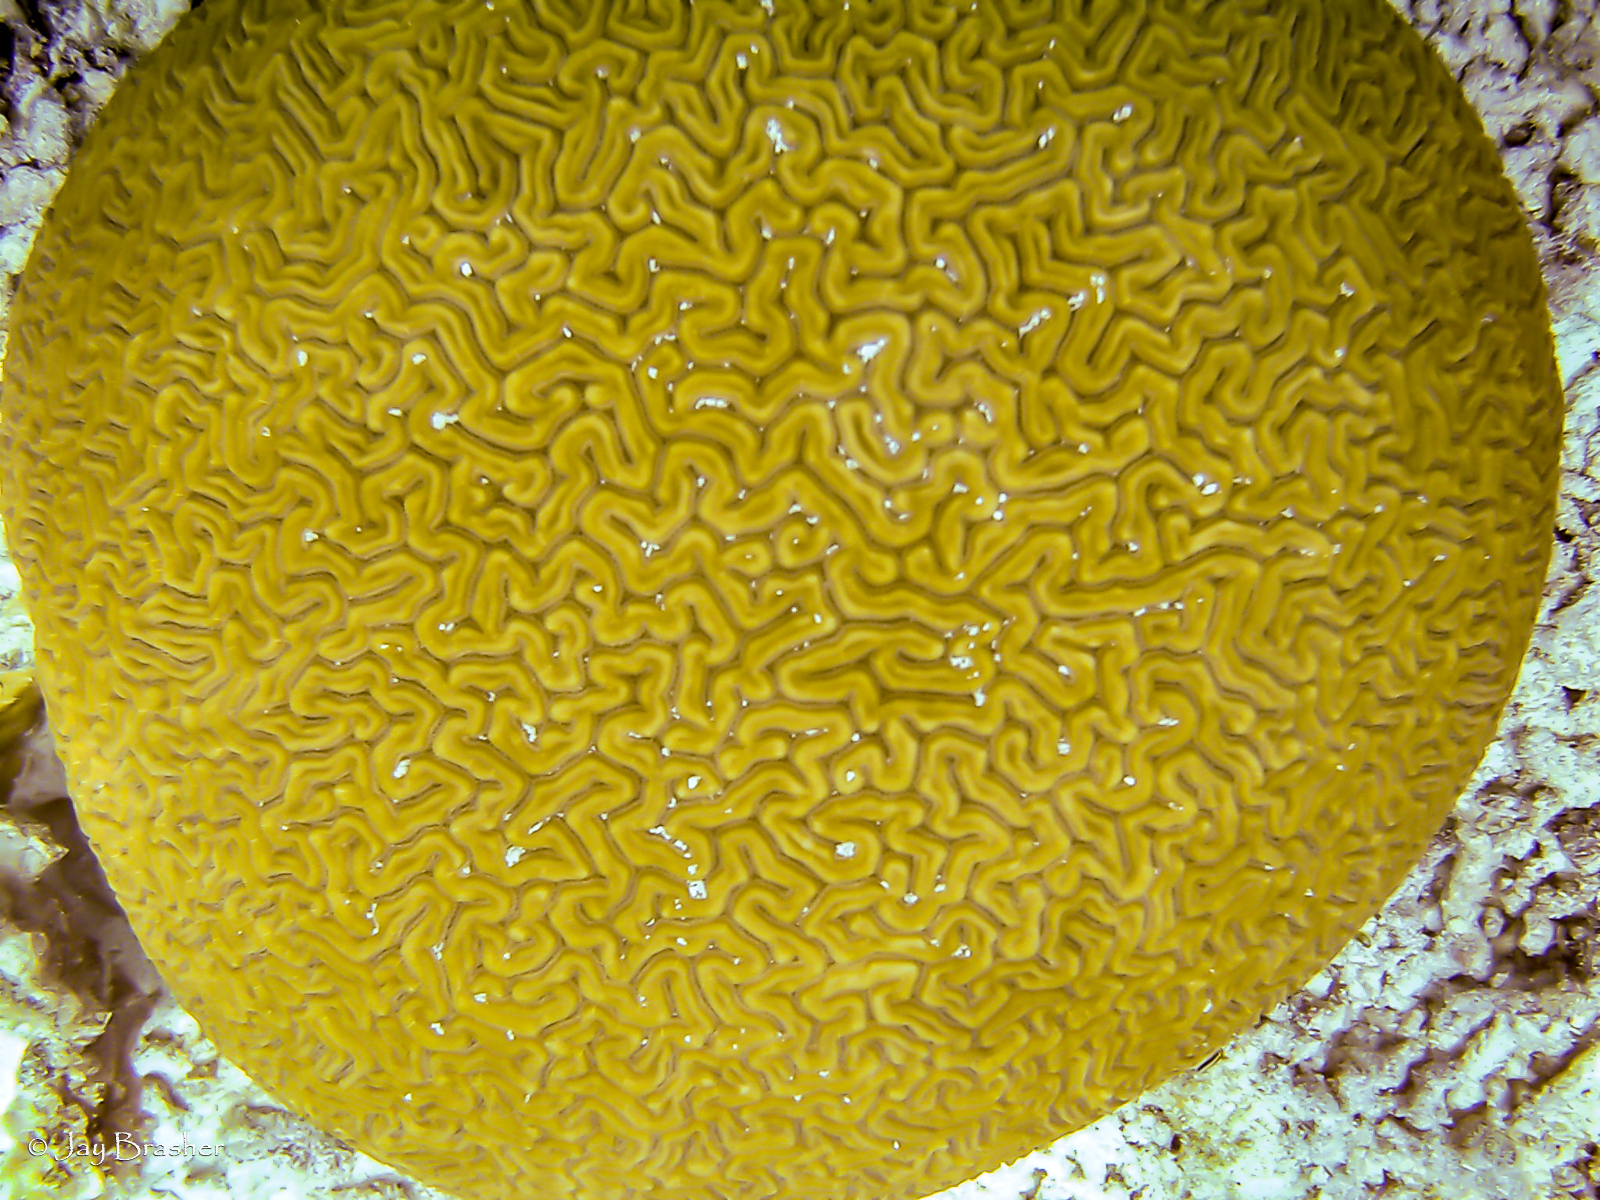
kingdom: Animalia
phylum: Cnidaria
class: Anthozoa
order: Scleractinia
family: Faviidae
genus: Diploria
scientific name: Diploria labyrinthiformis
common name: Grooved brain coral
